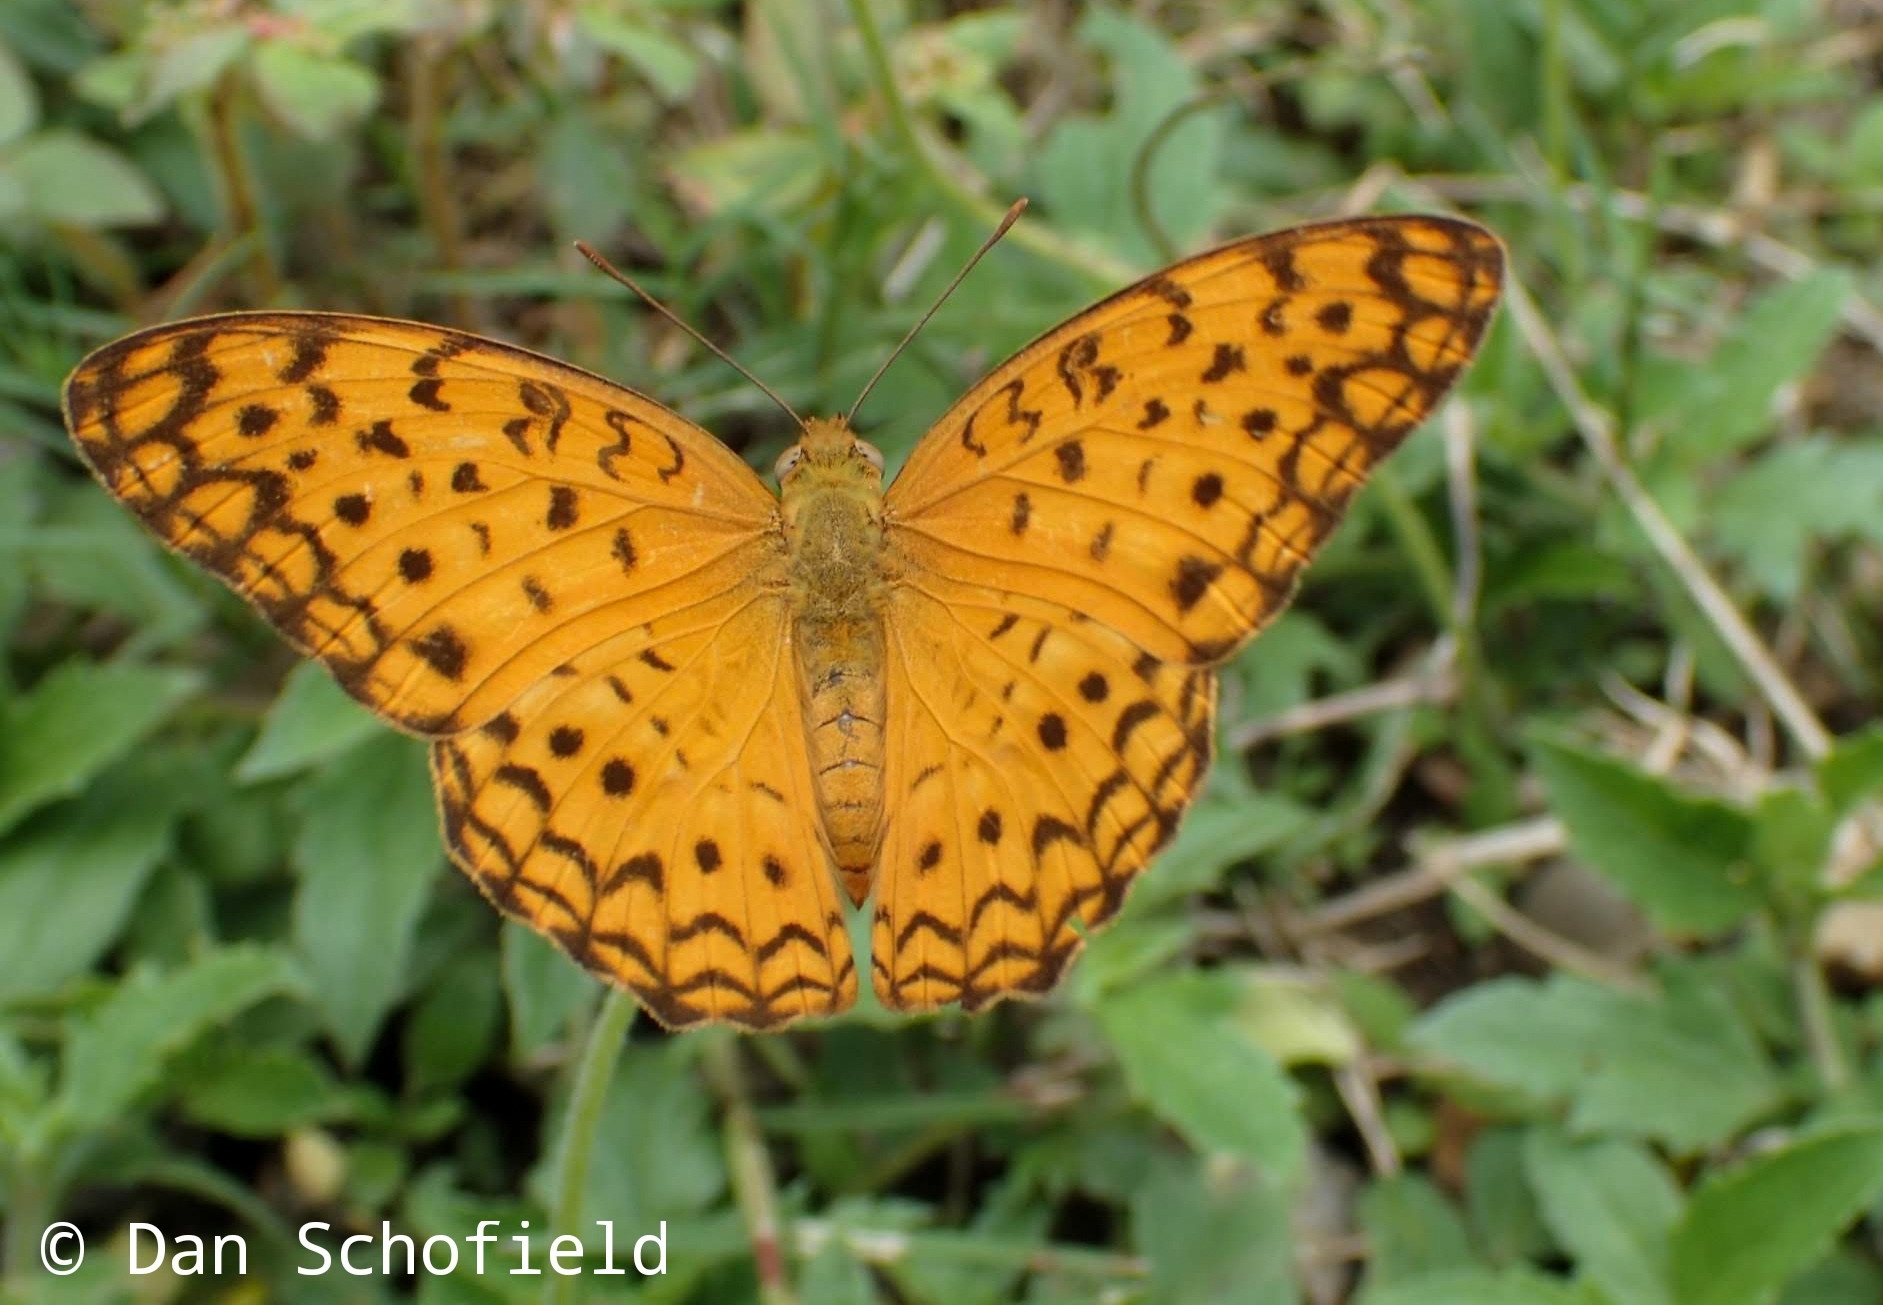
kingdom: Animalia
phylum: Arthropoda
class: Insecta
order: Lepidoptera
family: Nymphalidae
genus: Phalanta
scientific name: Phalanta phalantha
